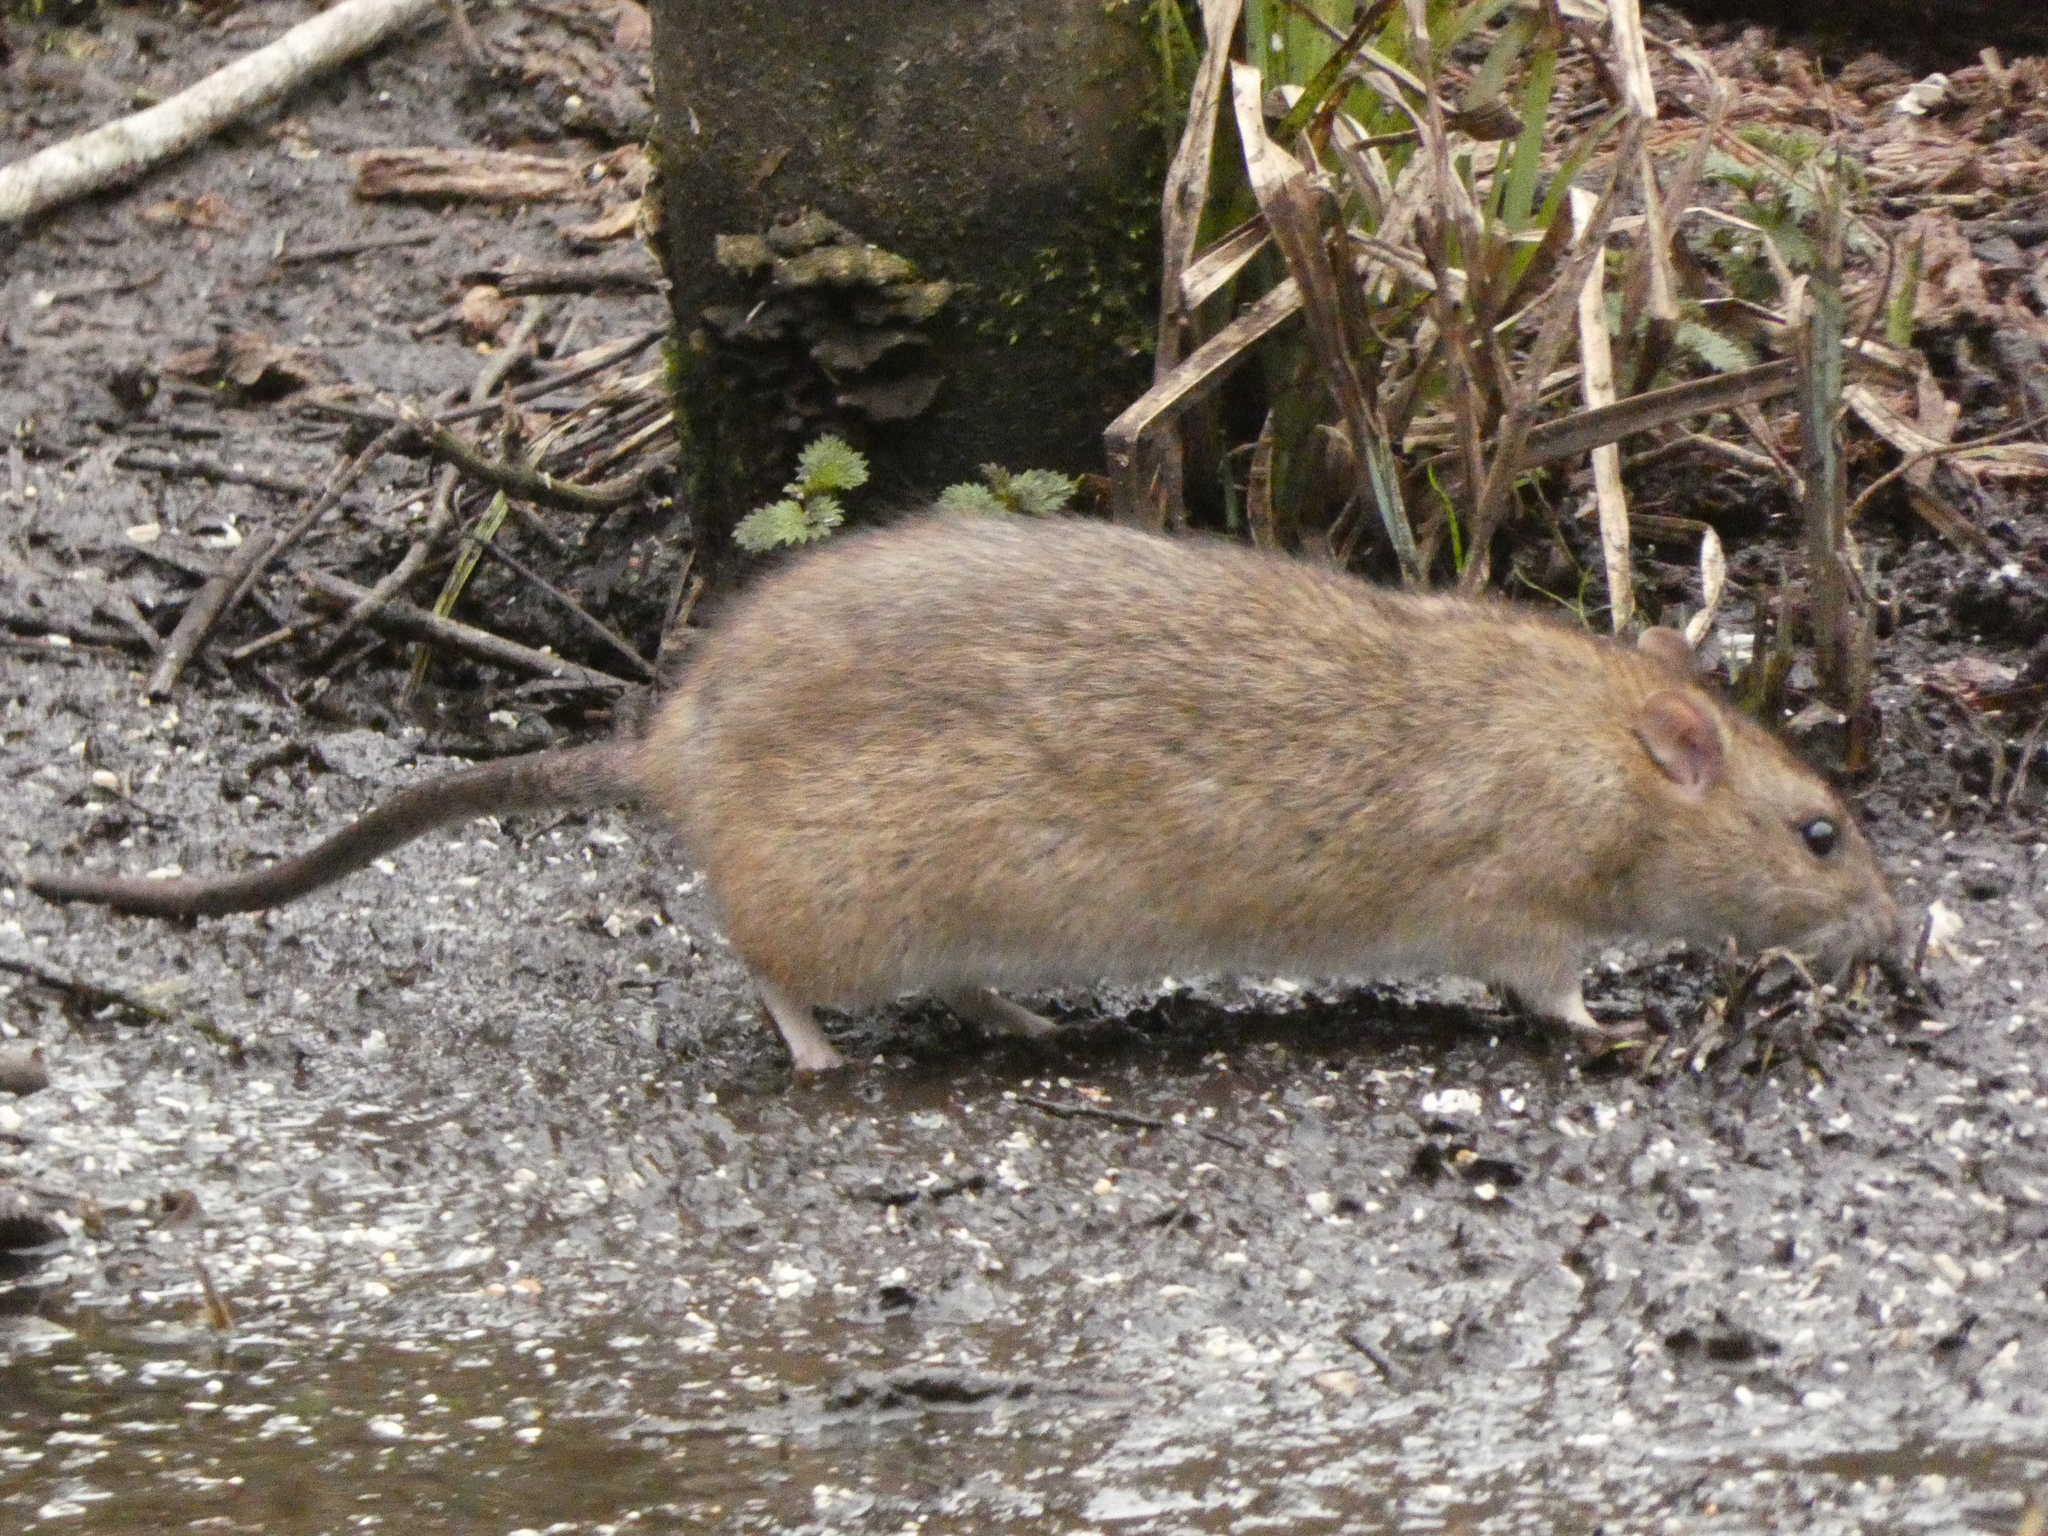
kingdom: Animalia
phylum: Chordata
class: Mammalia
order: Rodentia
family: Muridae
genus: Rattus
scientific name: Rattus norvegicus
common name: Brown rat
